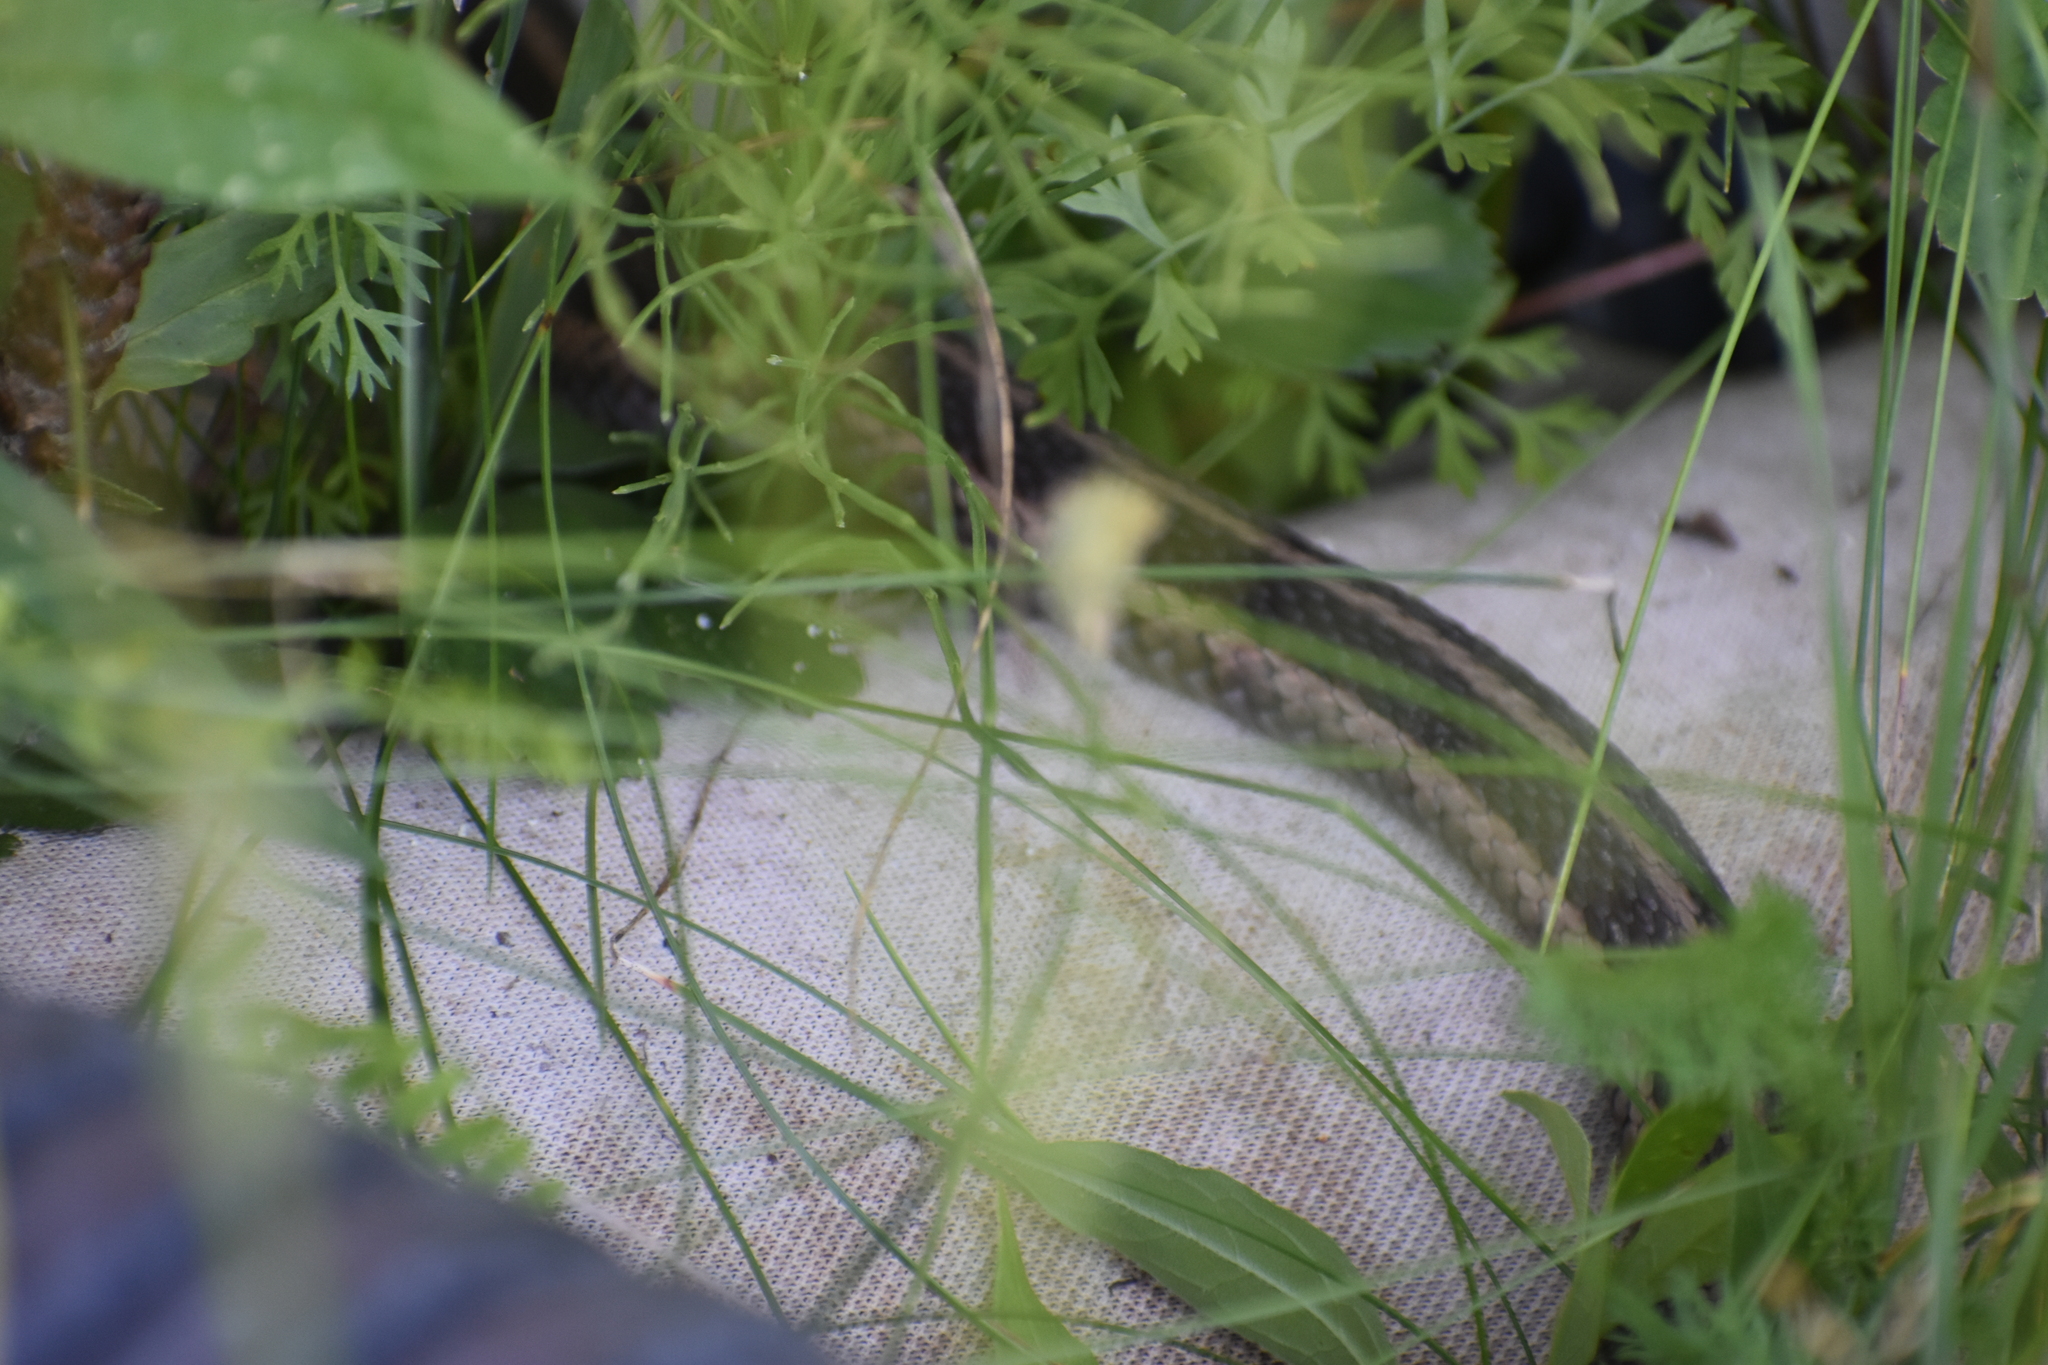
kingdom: Animalia
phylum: Chordata
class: Squamata
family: Colubridae
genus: Thamnophis
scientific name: Thamnophis sirtalis
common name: Common garter snake
